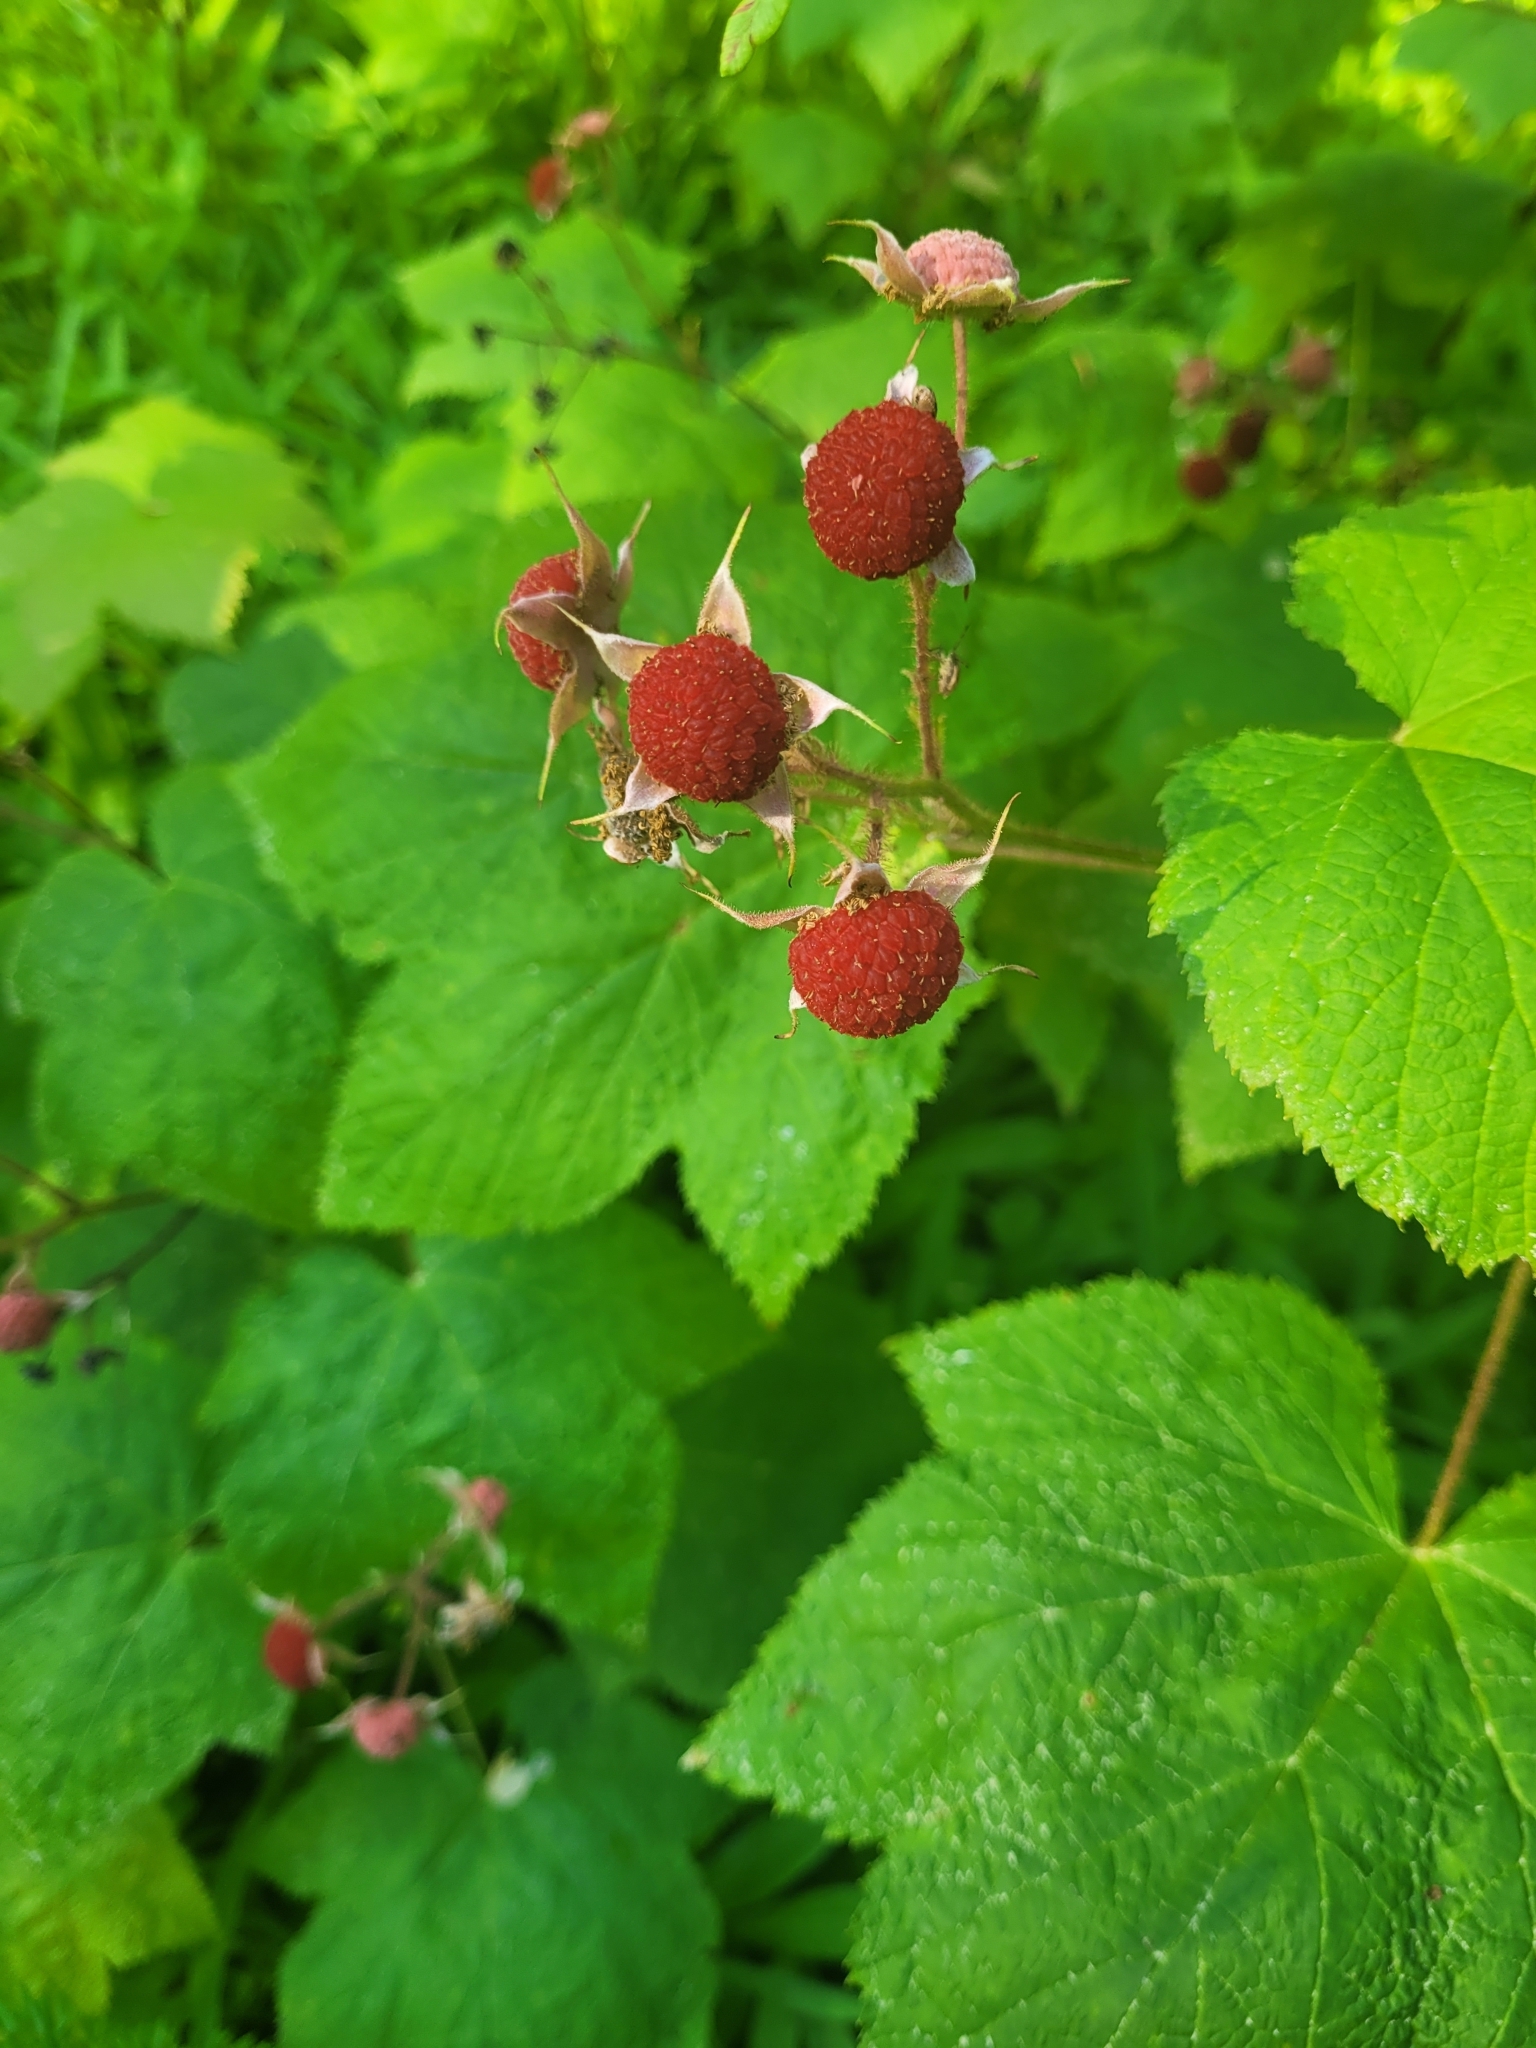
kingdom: Plantae
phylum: Tracheophyta
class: Magnoliopsida
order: Rosales
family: Rosaceae
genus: Rubus
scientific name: Rubus parviflorus
